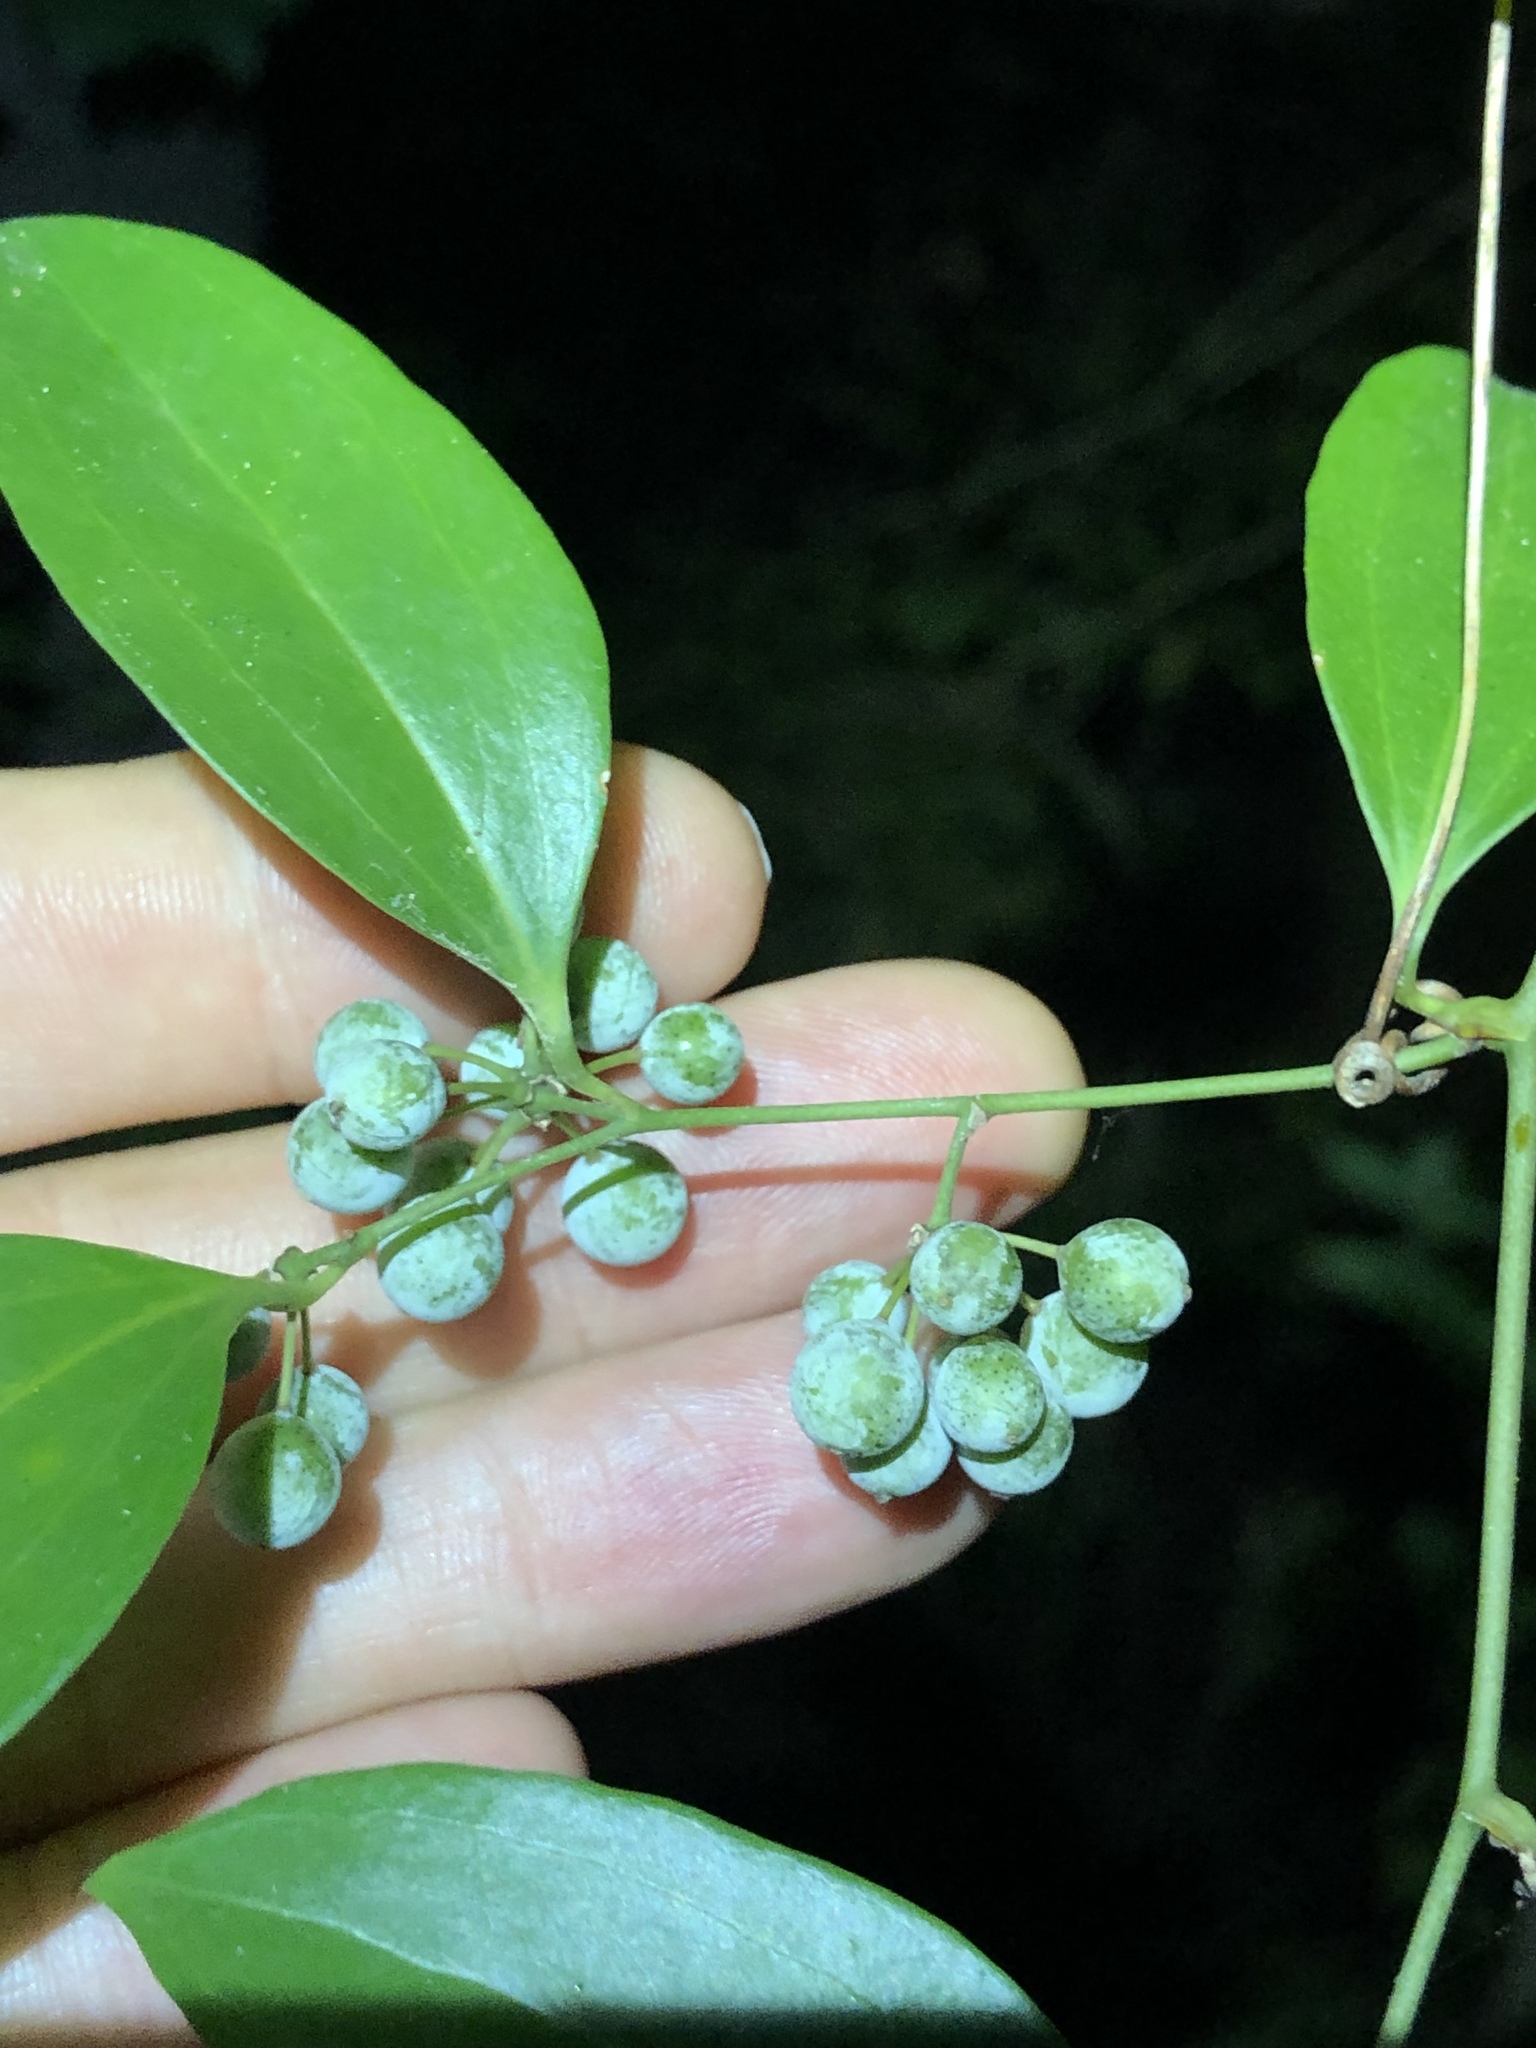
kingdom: Plantae
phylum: Tracheophyta
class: Liliopsida
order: Liliales
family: Smilacaceae
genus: Smilax
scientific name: Smilax maritima
